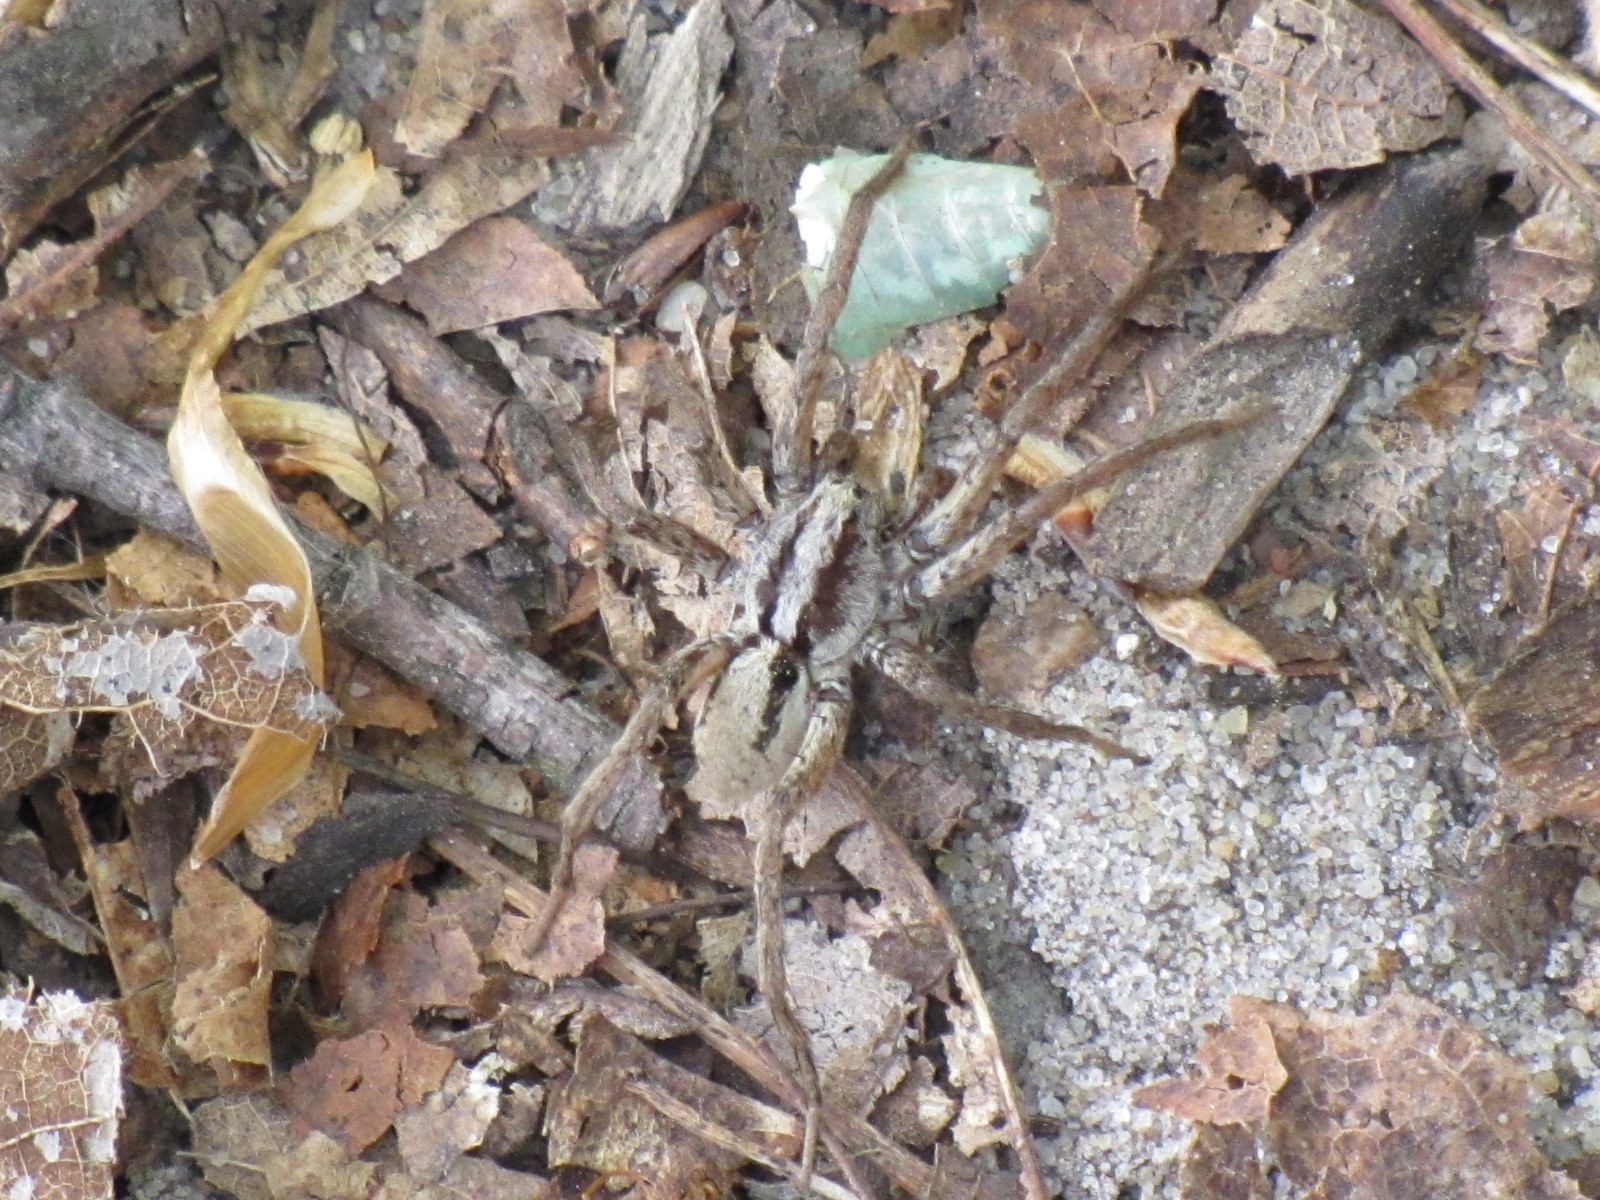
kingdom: Animalia
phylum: Arthropoda
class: Arachnida
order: Araneae
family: Lycosidae
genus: Gladicosa
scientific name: Gladicosa gulosa
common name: Drumming sword wolf spider
